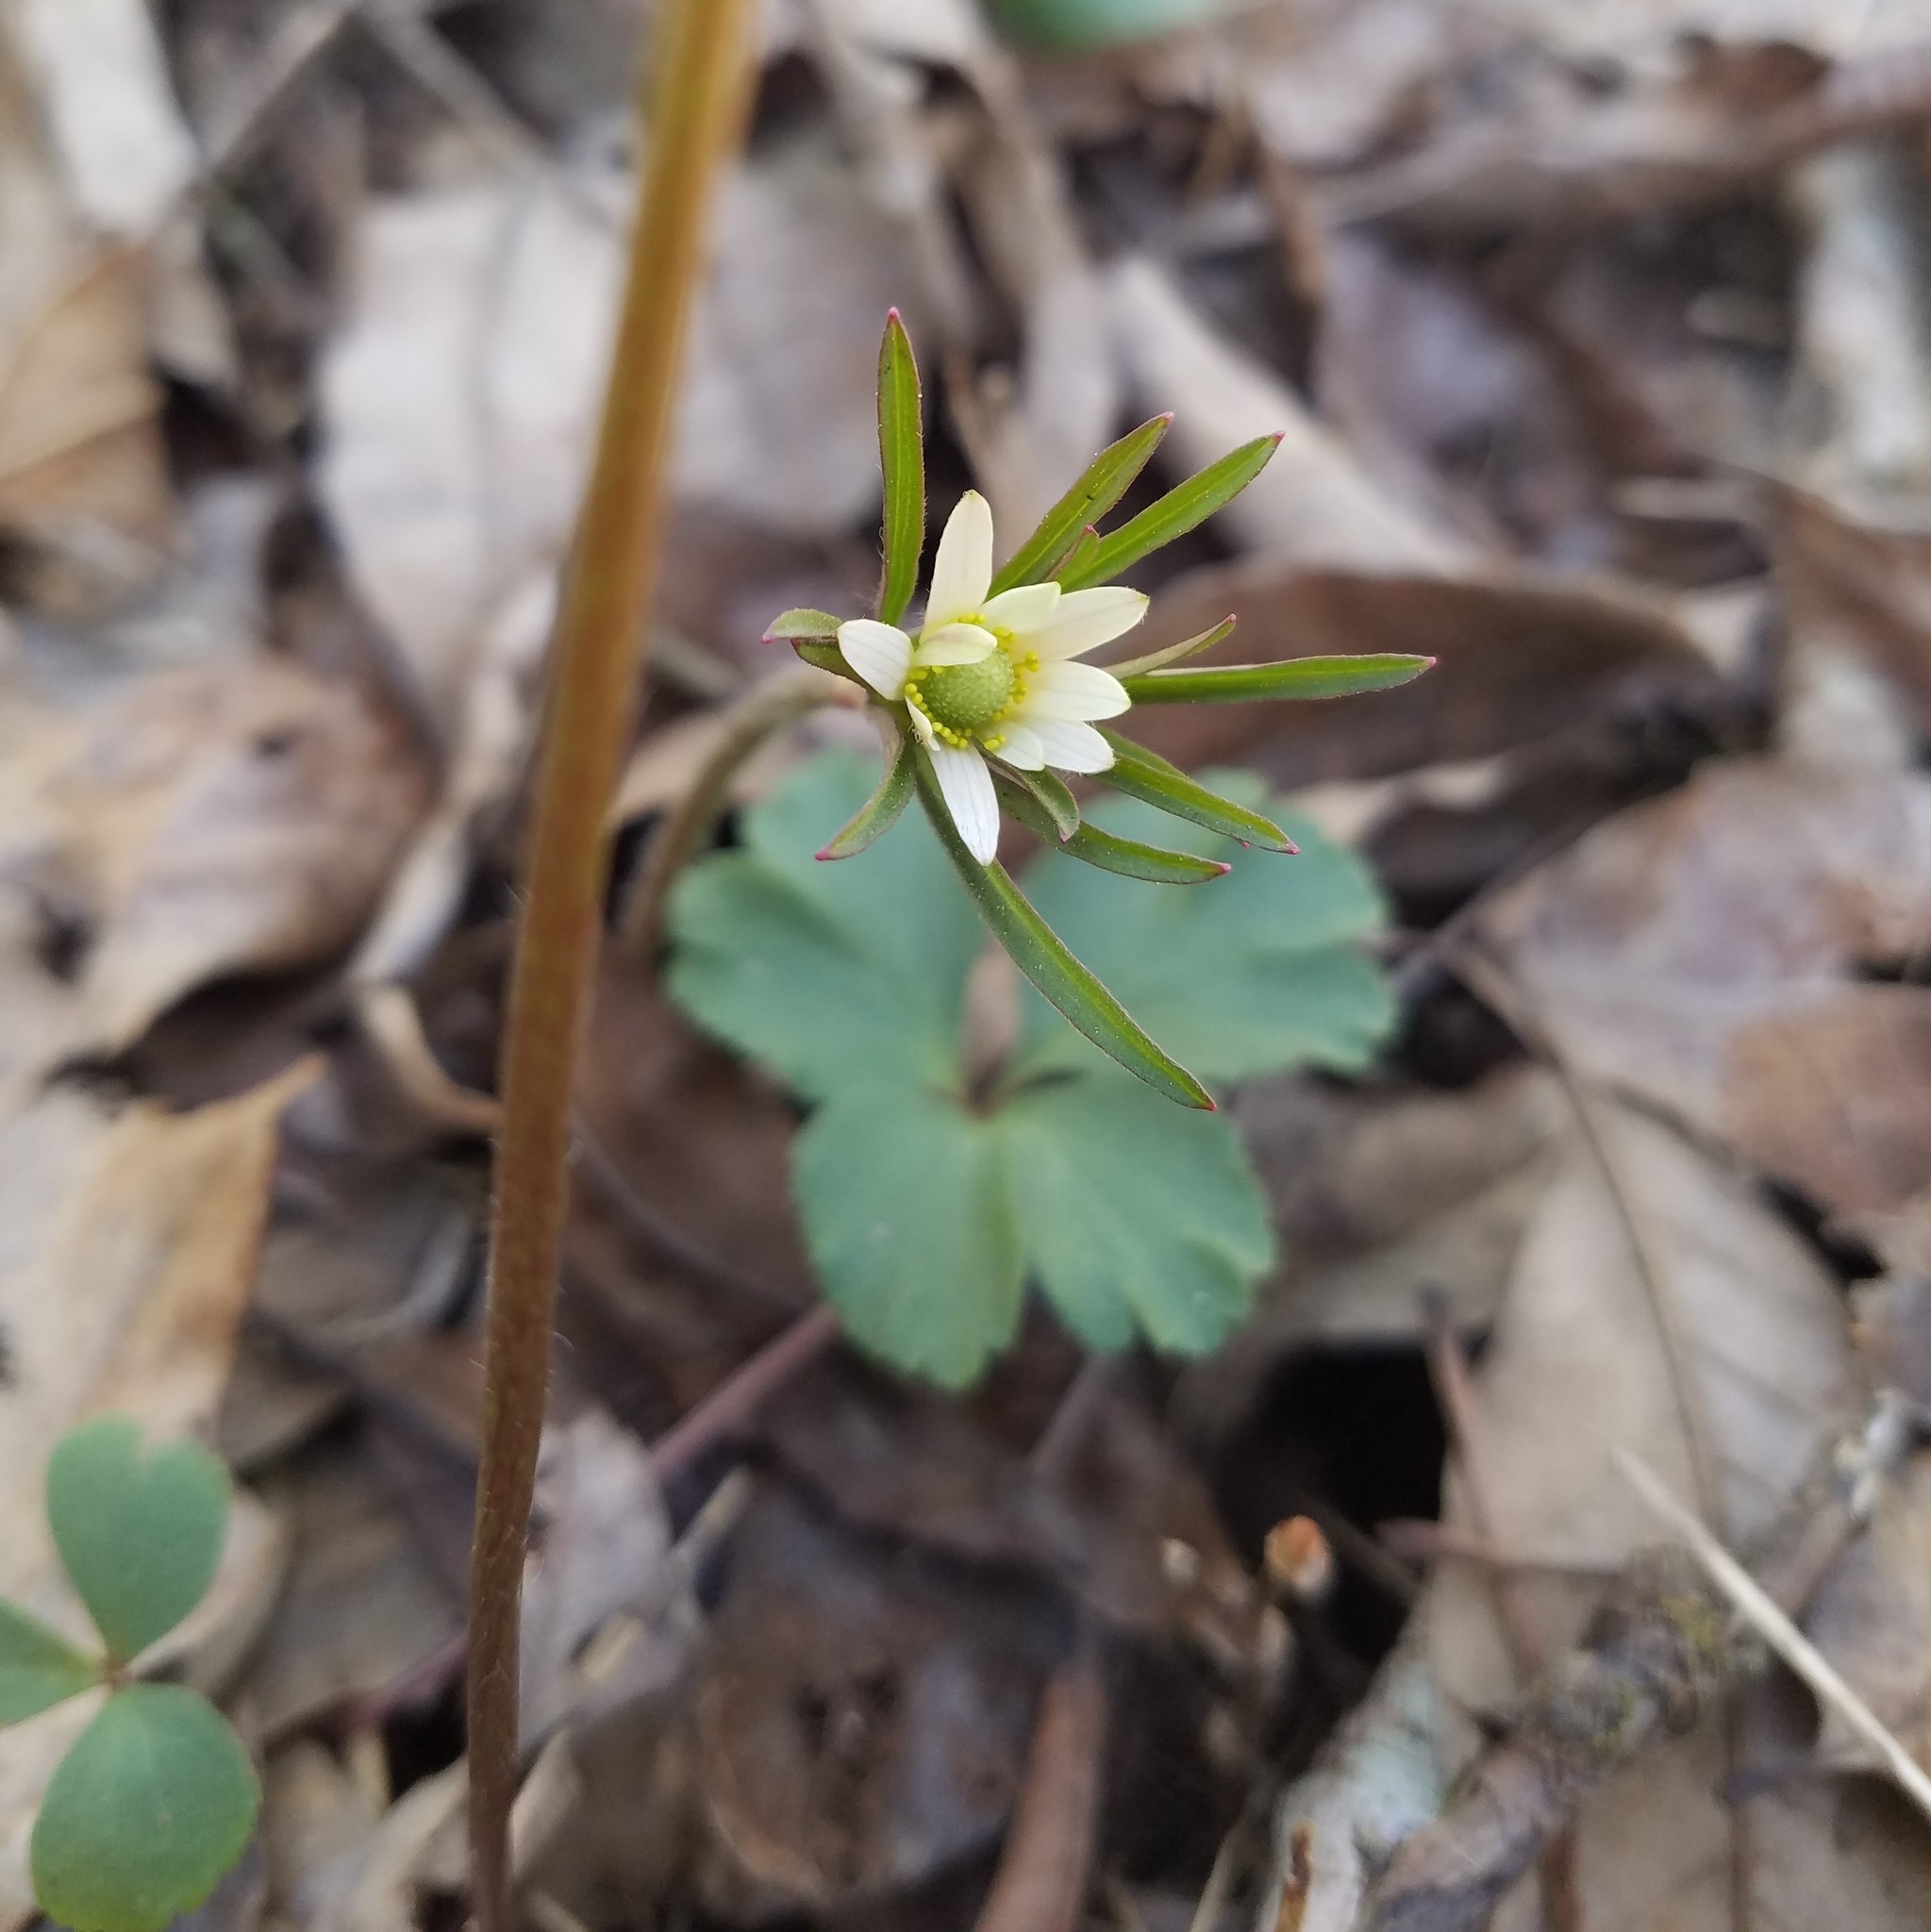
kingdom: Plantae
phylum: Tracheophyta
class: Magnoliopsida
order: Ranunculales
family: Ranunculaceae
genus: Anemone
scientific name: Anemone berlandieri
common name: Ten-petal anemone
